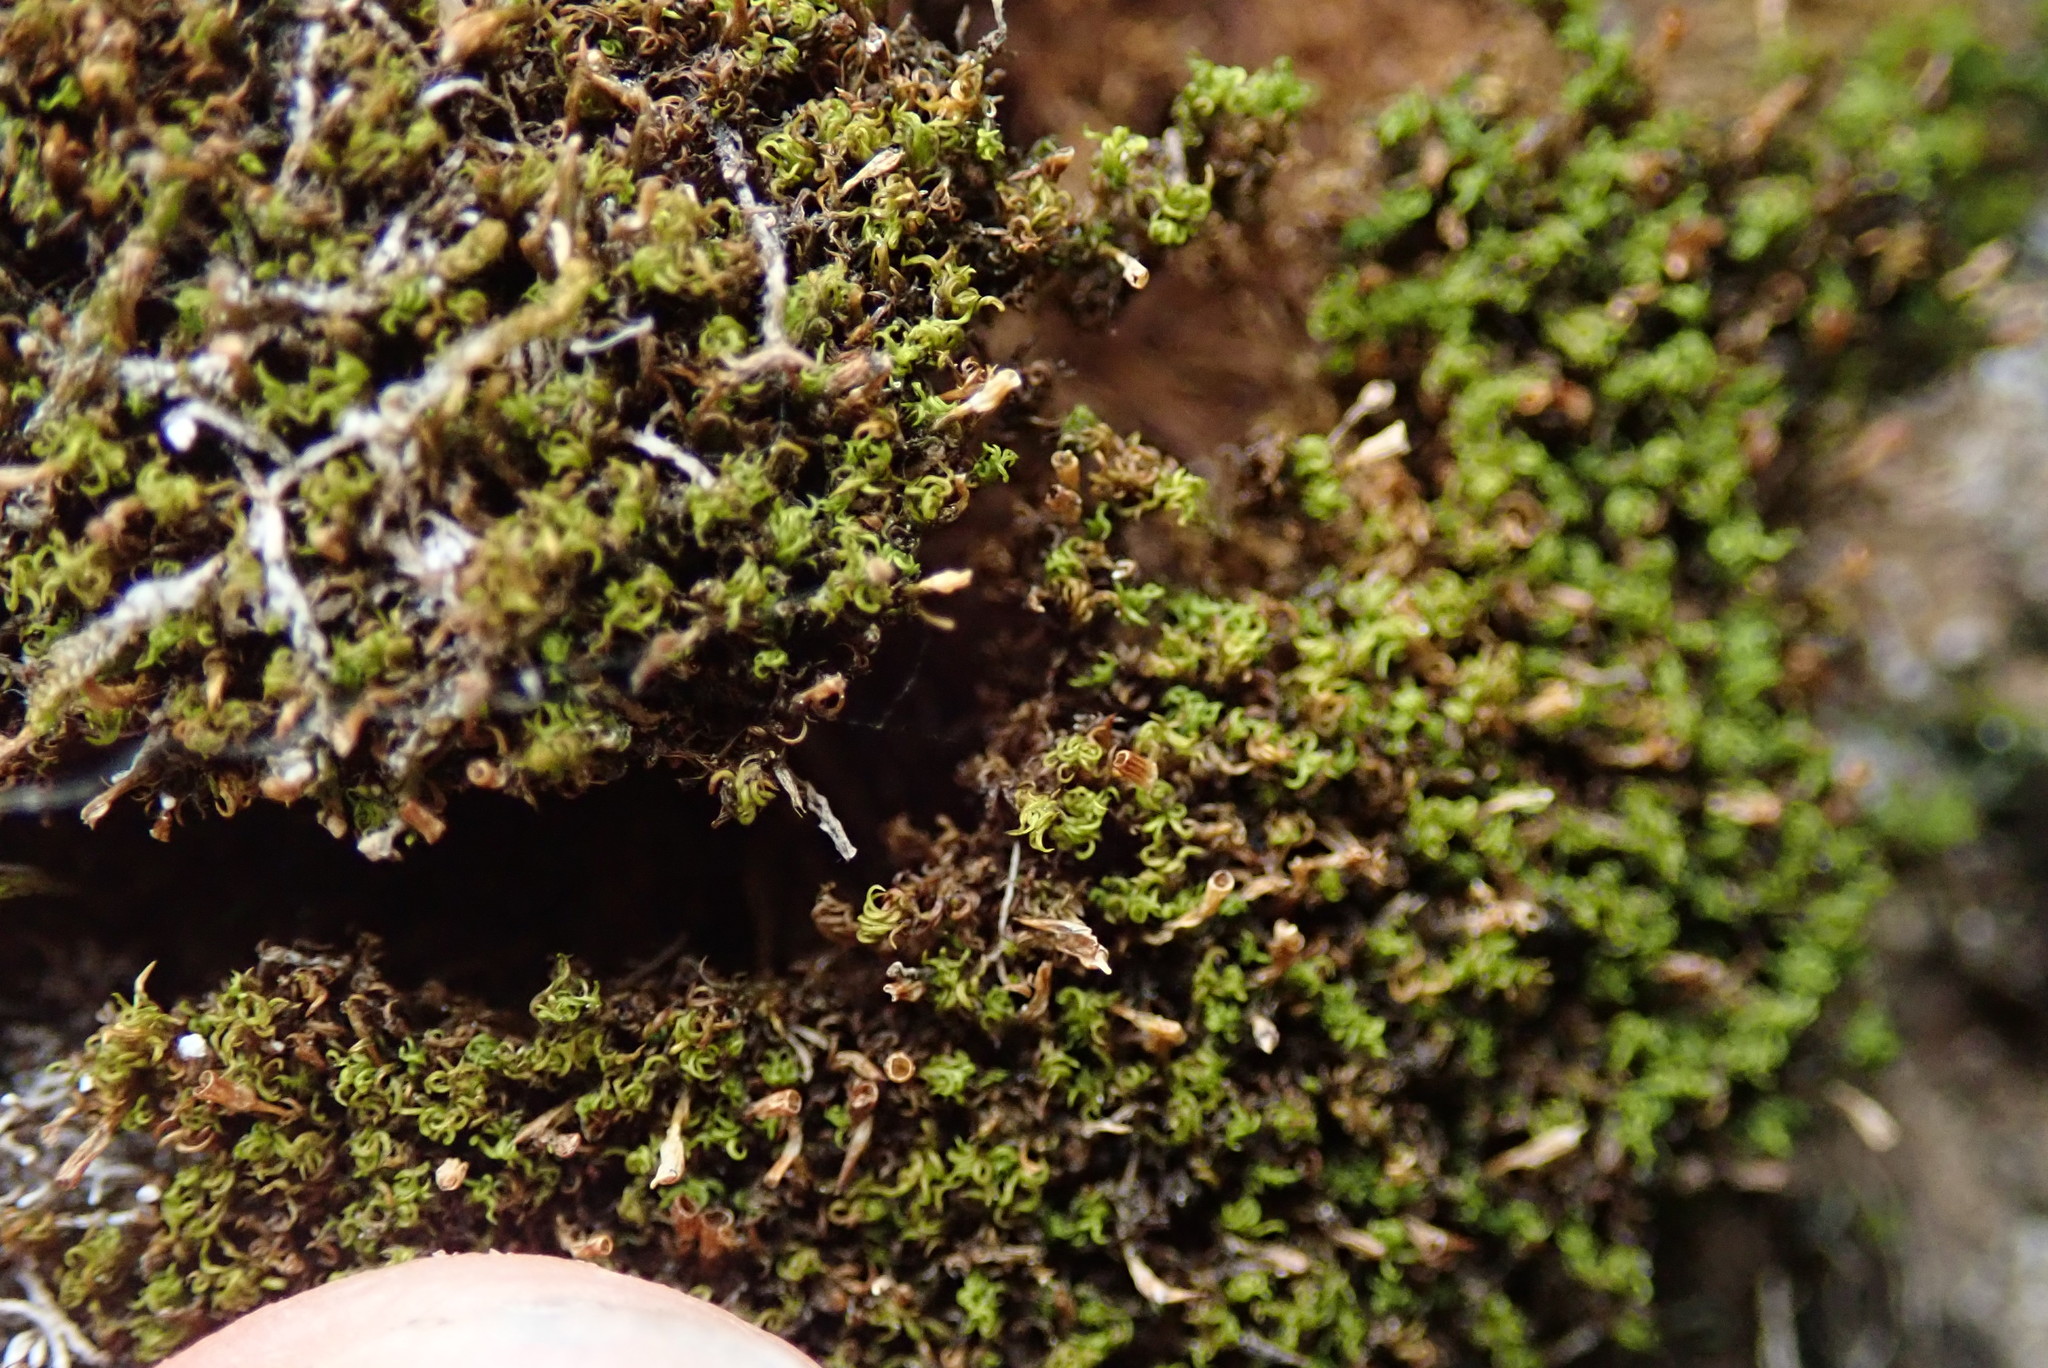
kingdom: Plantae
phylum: Bryophyta
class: Bryopsida
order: Dicranales
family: Amphidiaceae
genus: Amphidium
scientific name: Amphidium lapponicum
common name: Lapland yoke moss
